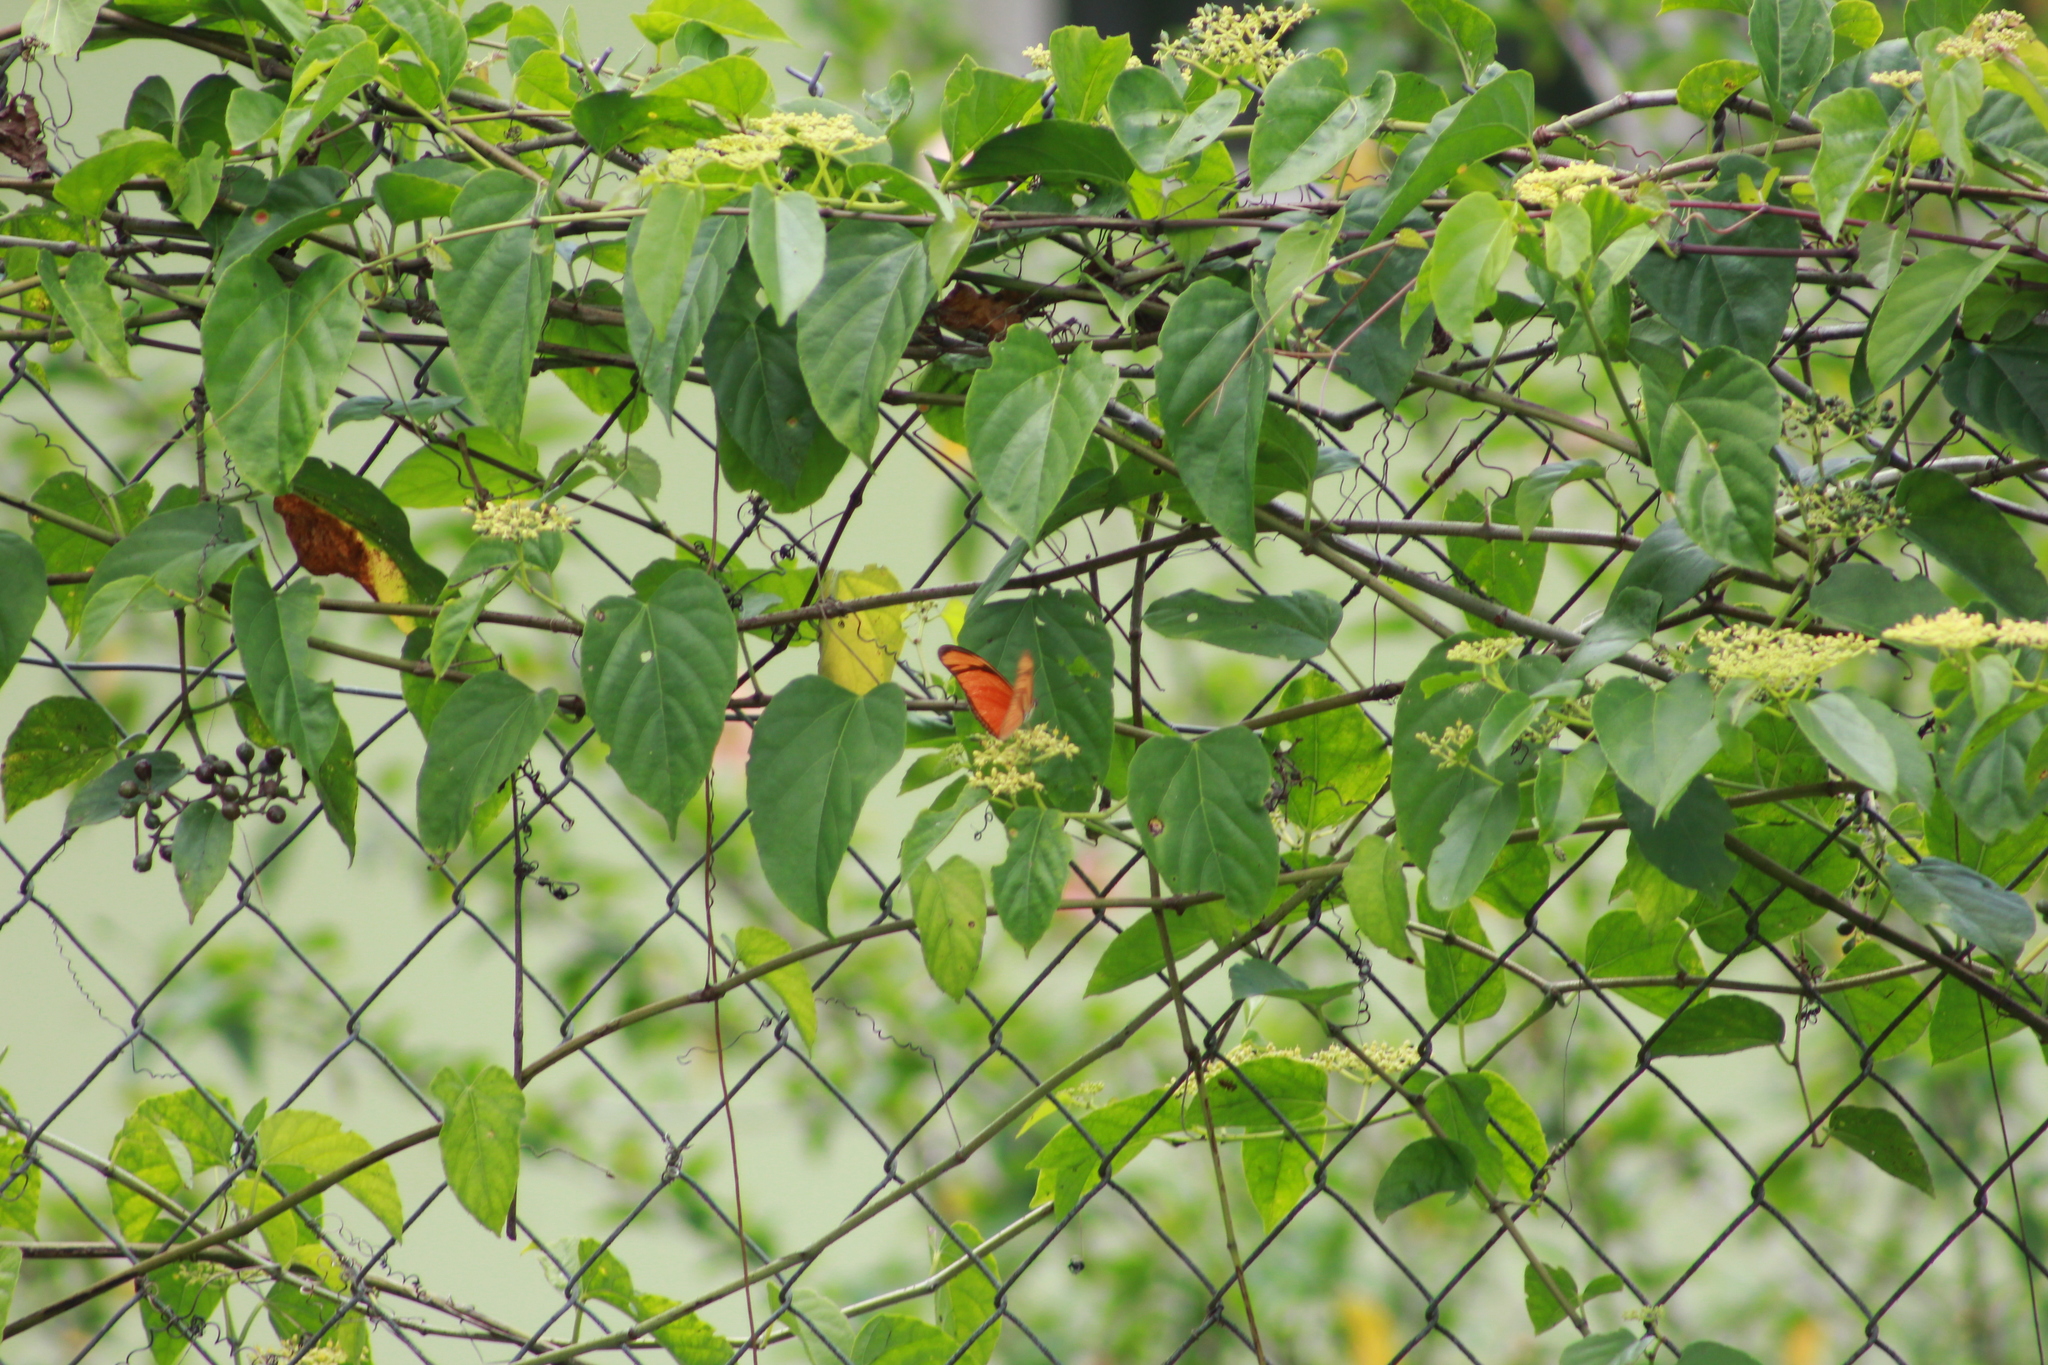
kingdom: Animalia
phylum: Arthropoda
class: Insecta
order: Lepidoptera
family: Nymphalidae
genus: Dryas
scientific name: Dryas iulia
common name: Flambeau
